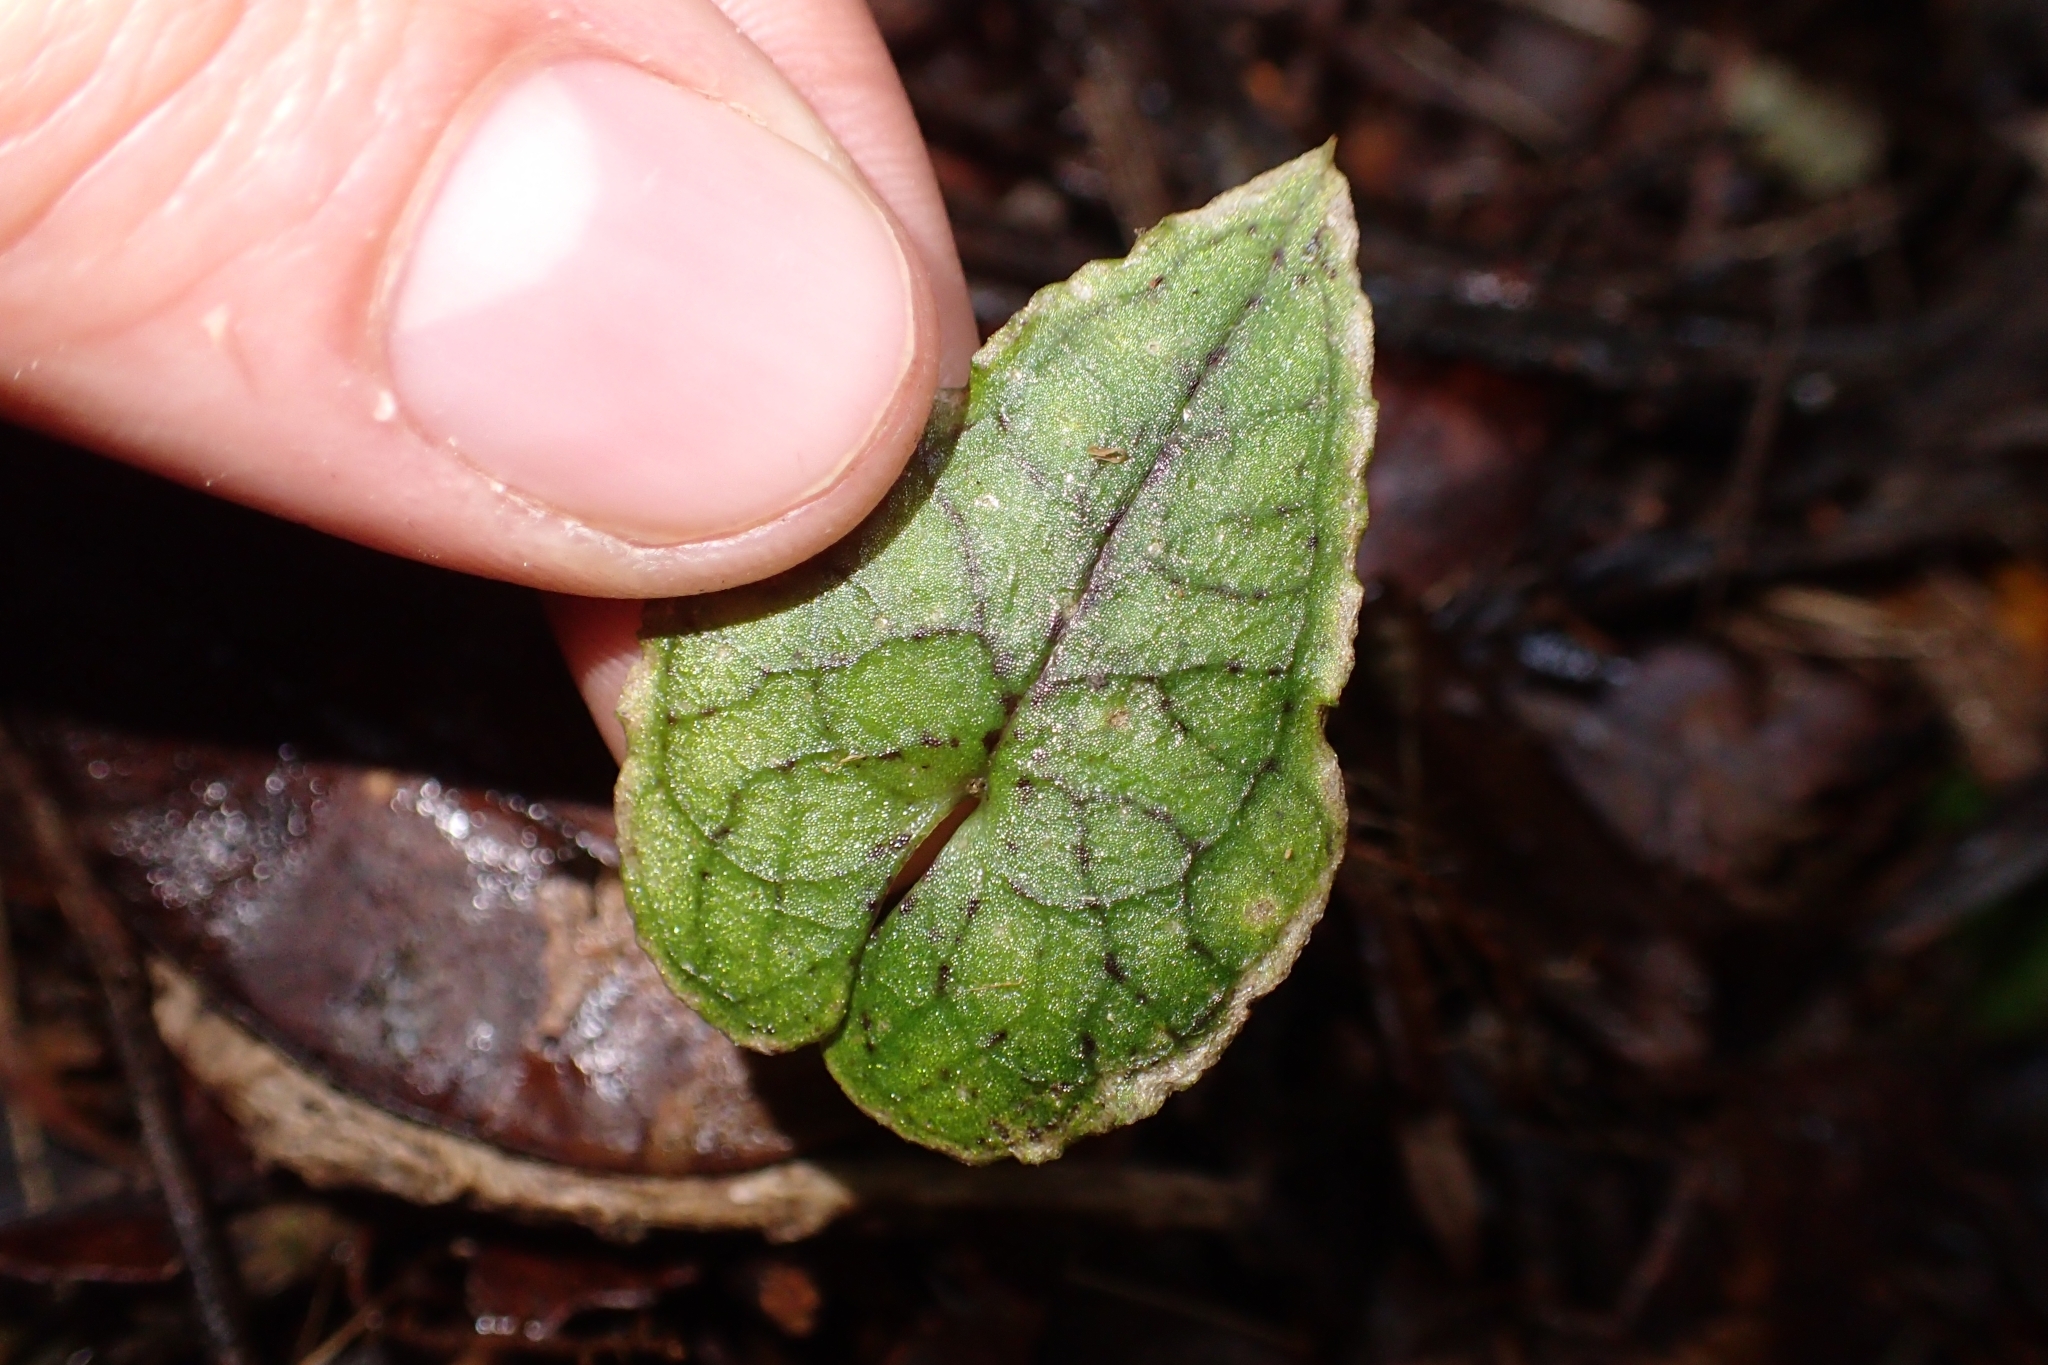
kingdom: Plantae
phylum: Tracheophyta
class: Liliopsida
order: Asparagales
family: Orchidaceae
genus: Corybas
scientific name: Corybas acuminatus
